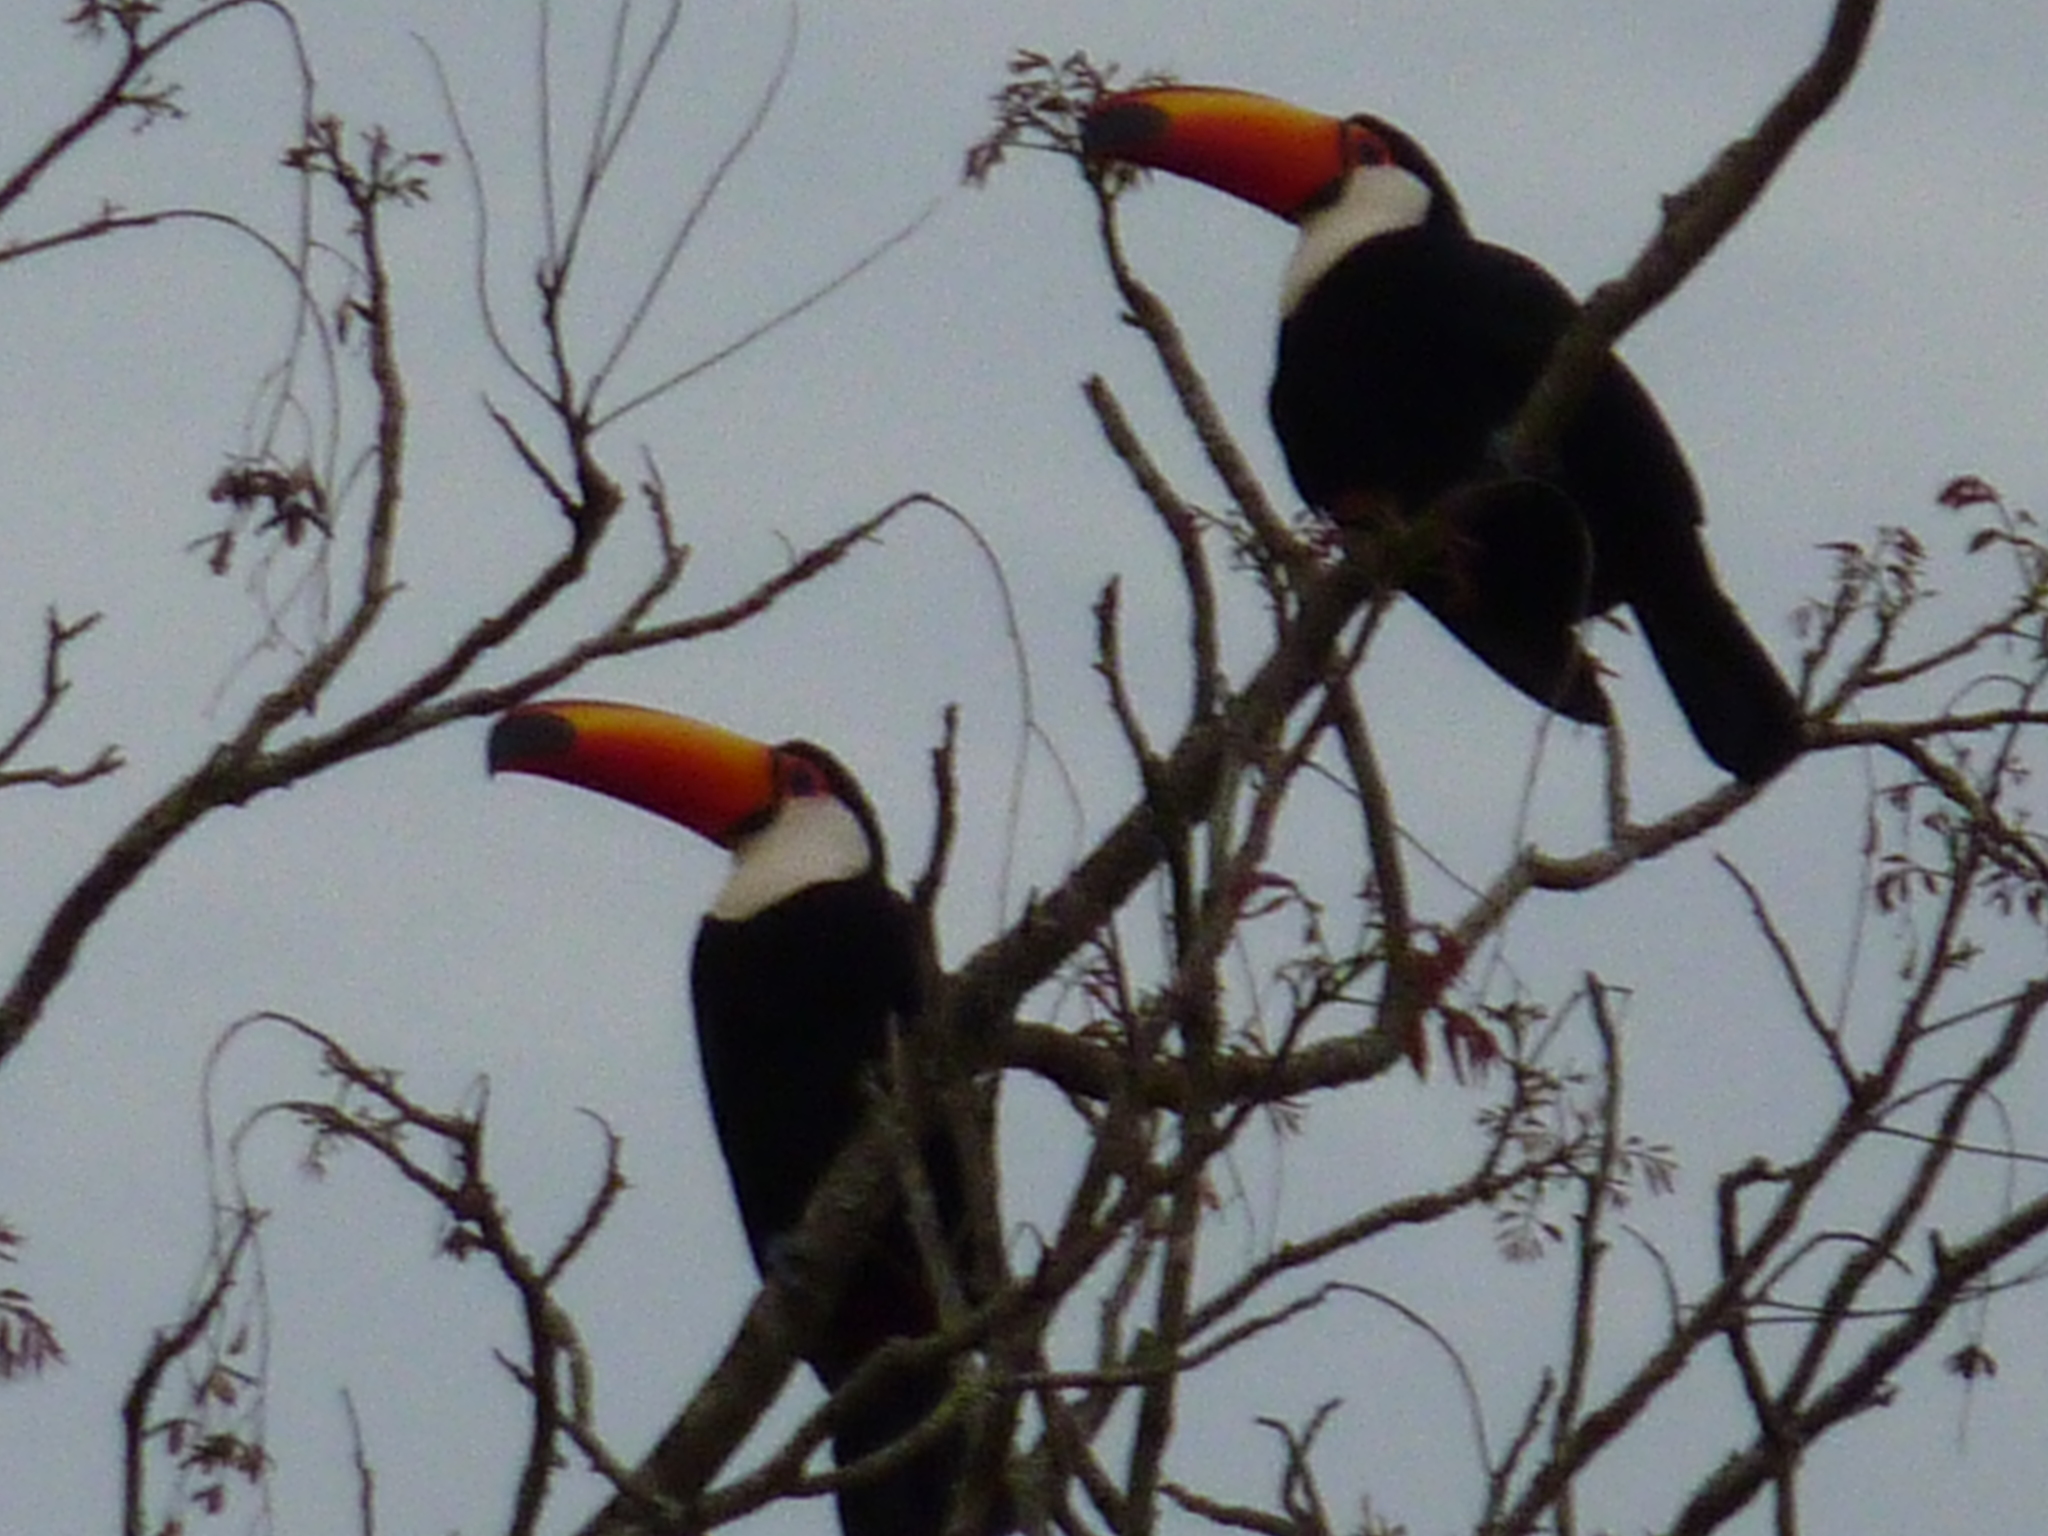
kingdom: Animalia
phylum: Chordata
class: Aves
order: Piciformes
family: Ramphastidae
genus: Ramphastos
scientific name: Ramphastos toco
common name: Toco toucan
